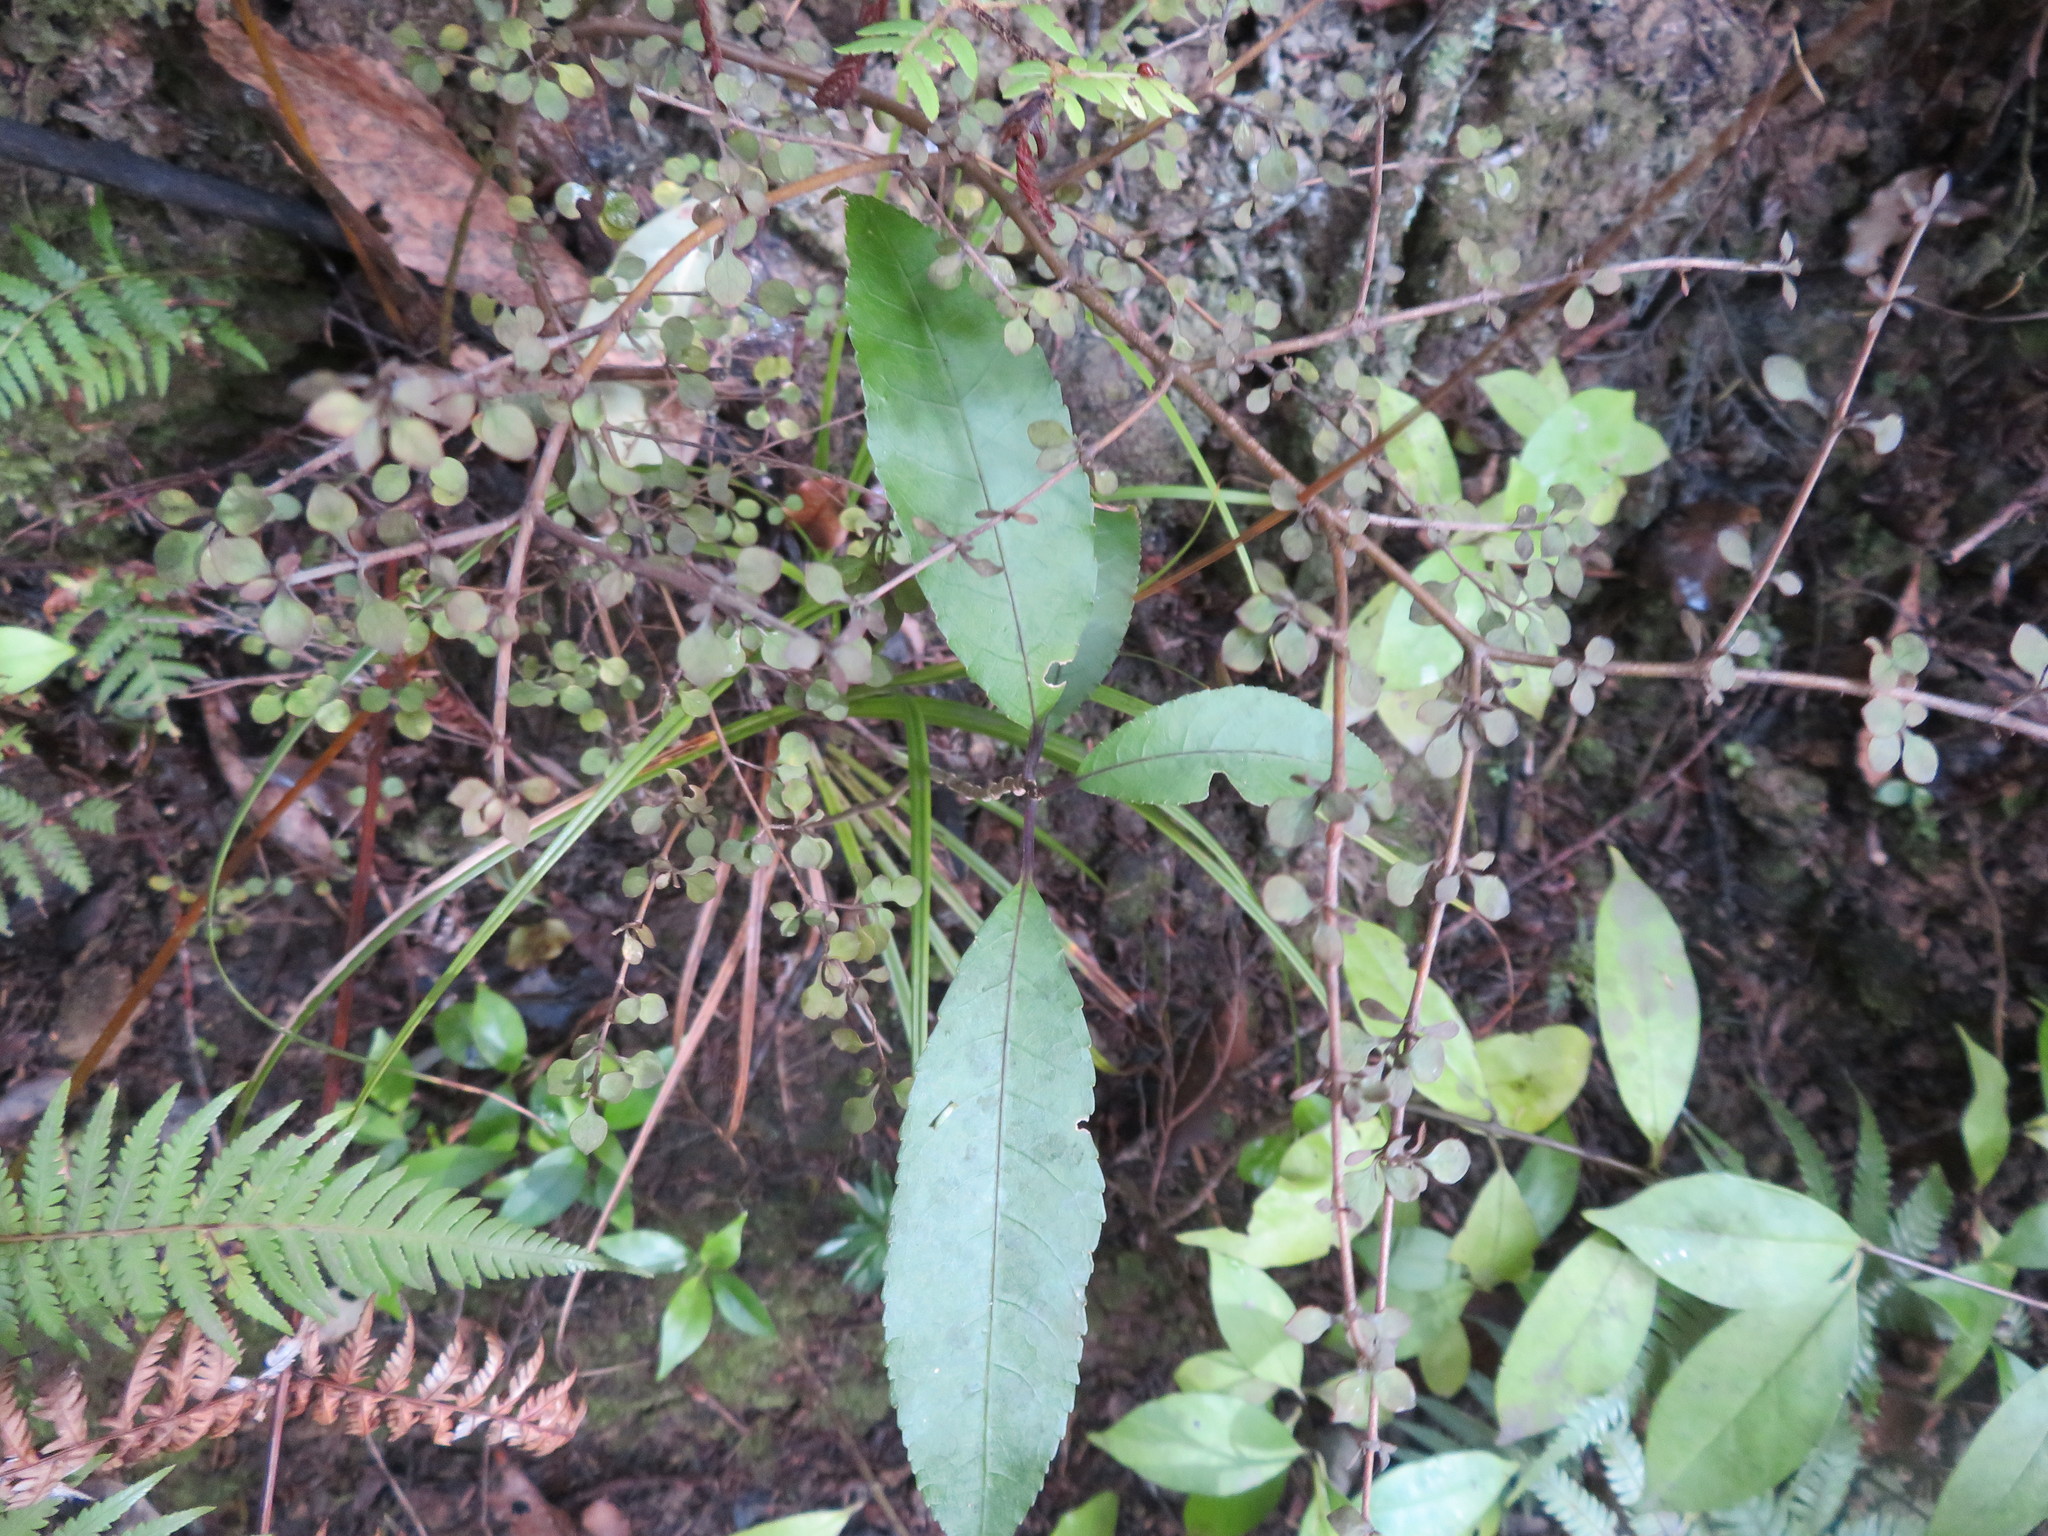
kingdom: Plantae
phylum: Tracheophyta
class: Magnoliopsida
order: Malpighiales
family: Violaceae
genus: Melicytus
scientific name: Melicytus ramiflorus
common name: Mahoe
